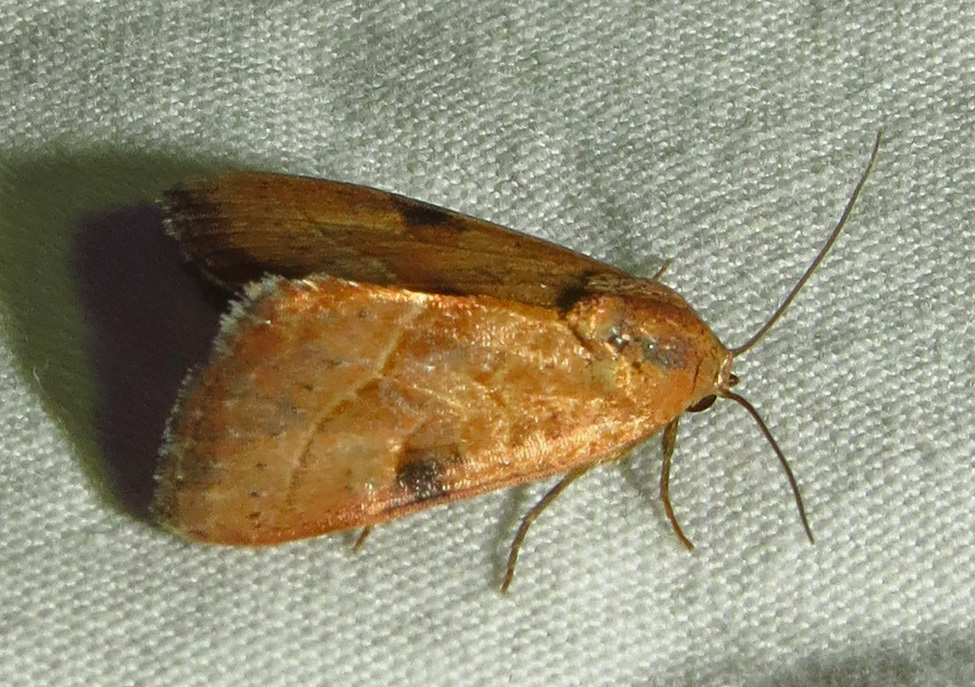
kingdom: Animalia
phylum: Arthropoda
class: Insecta
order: Lepidoptera
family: Noctuidae
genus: Galgula
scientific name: Galgula partita
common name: Wedgeling
